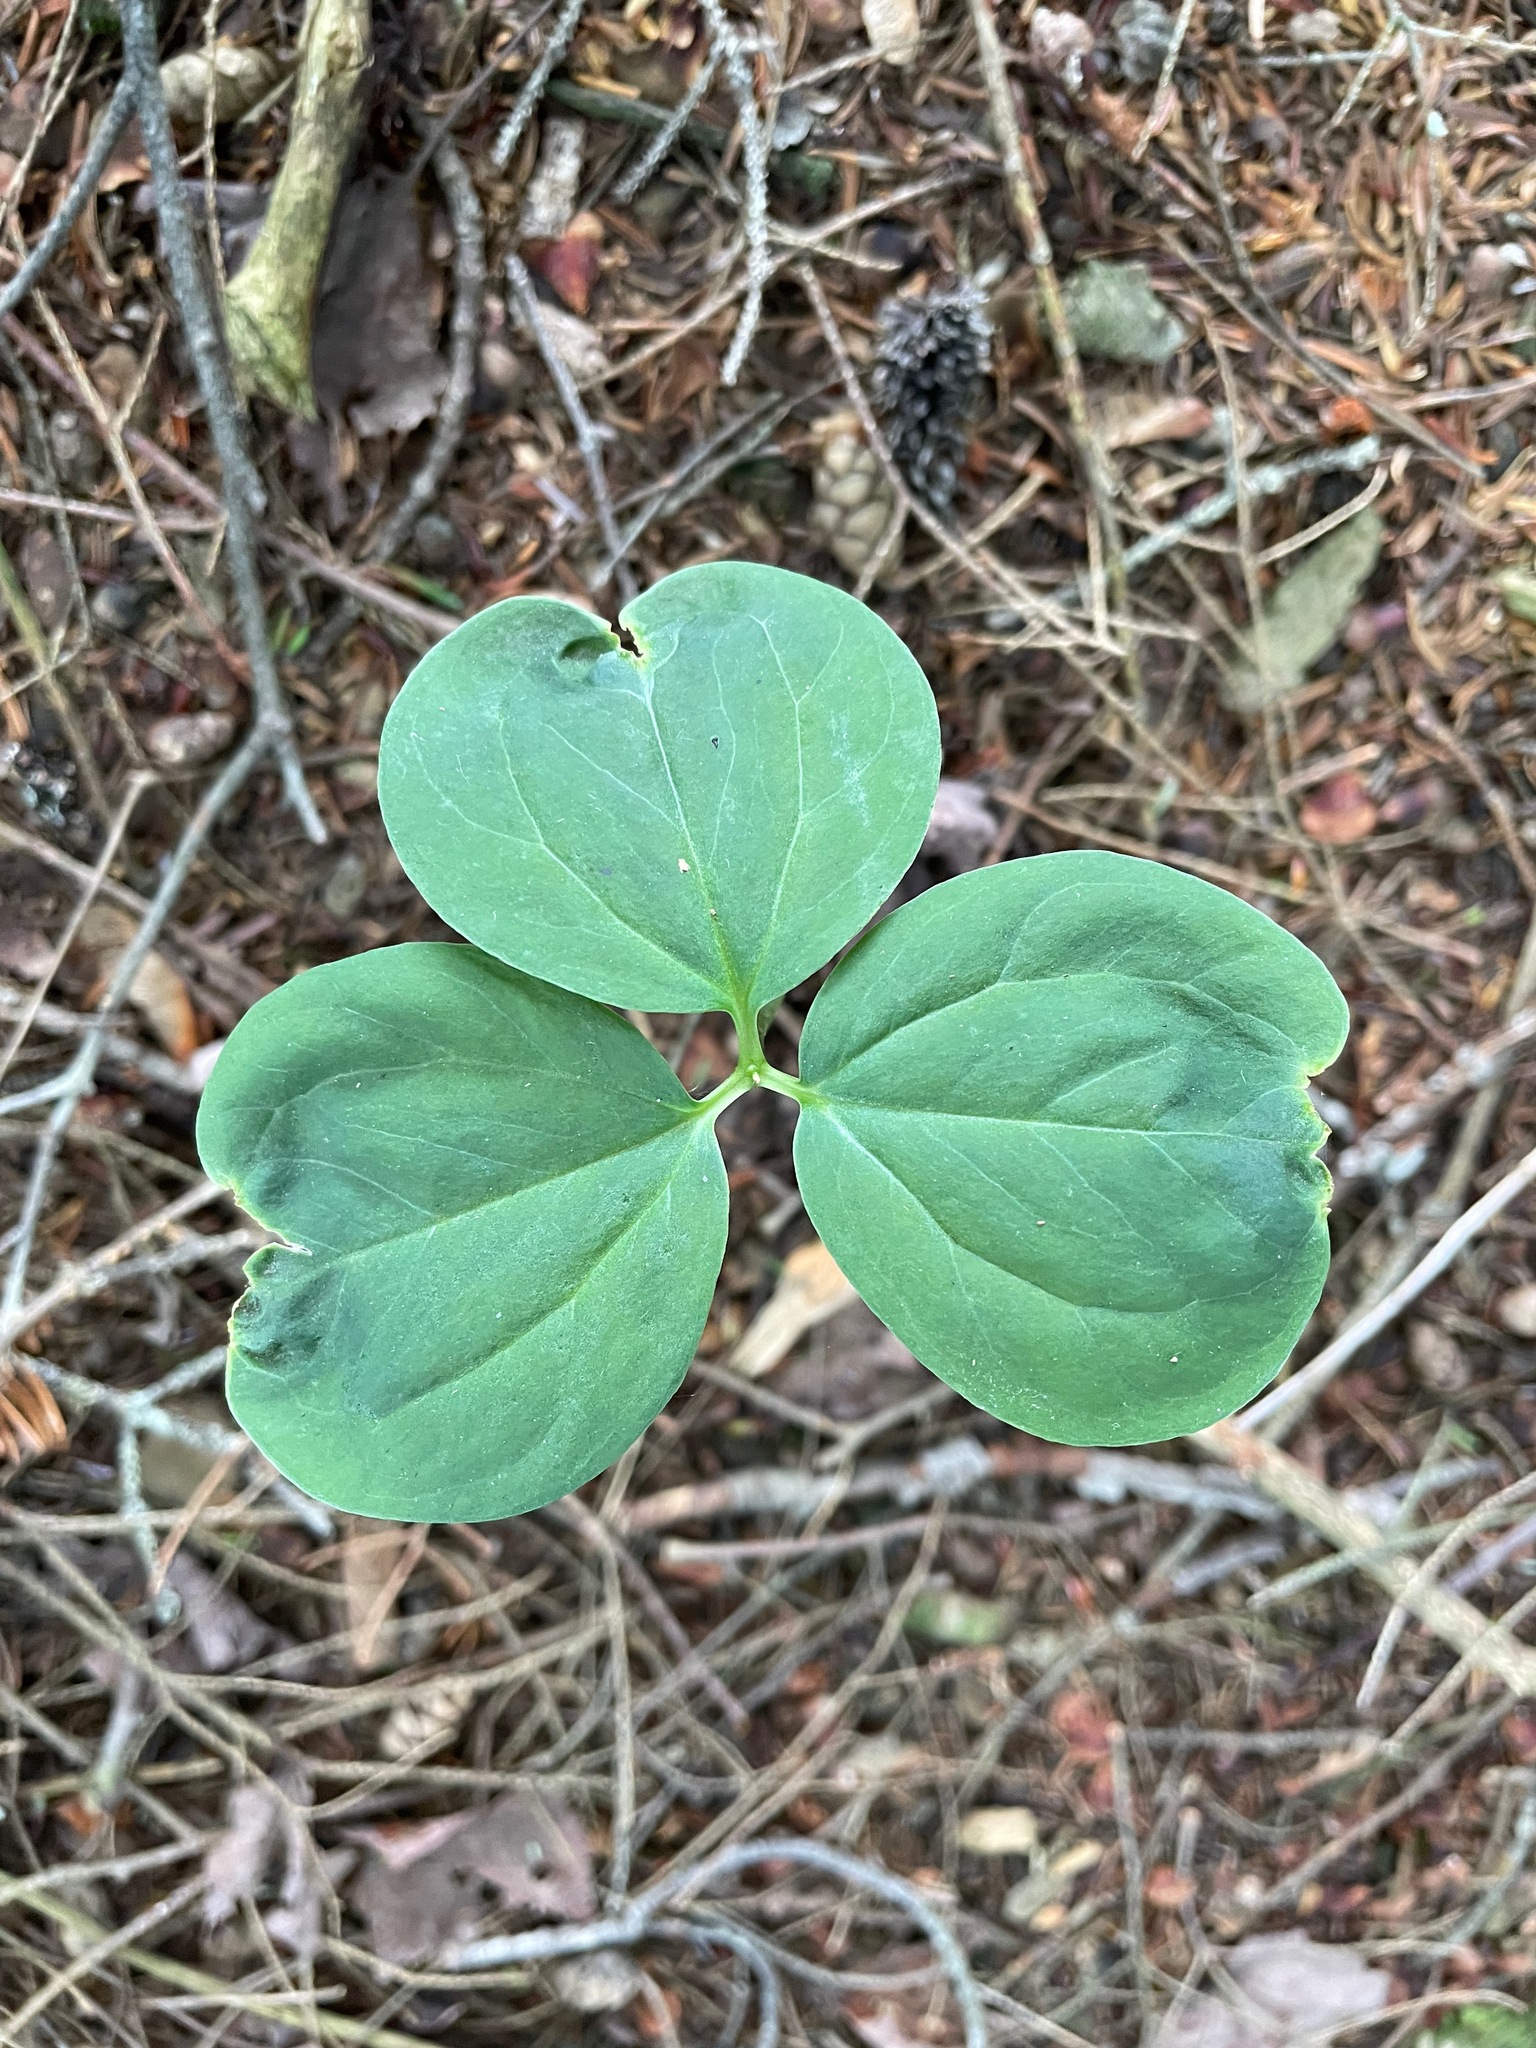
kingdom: Plantae
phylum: Tracheophyta
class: Liliopsida
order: Liliales
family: Melanthiaceae
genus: Trillium
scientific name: Trillium undulatum
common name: Paint trillium
